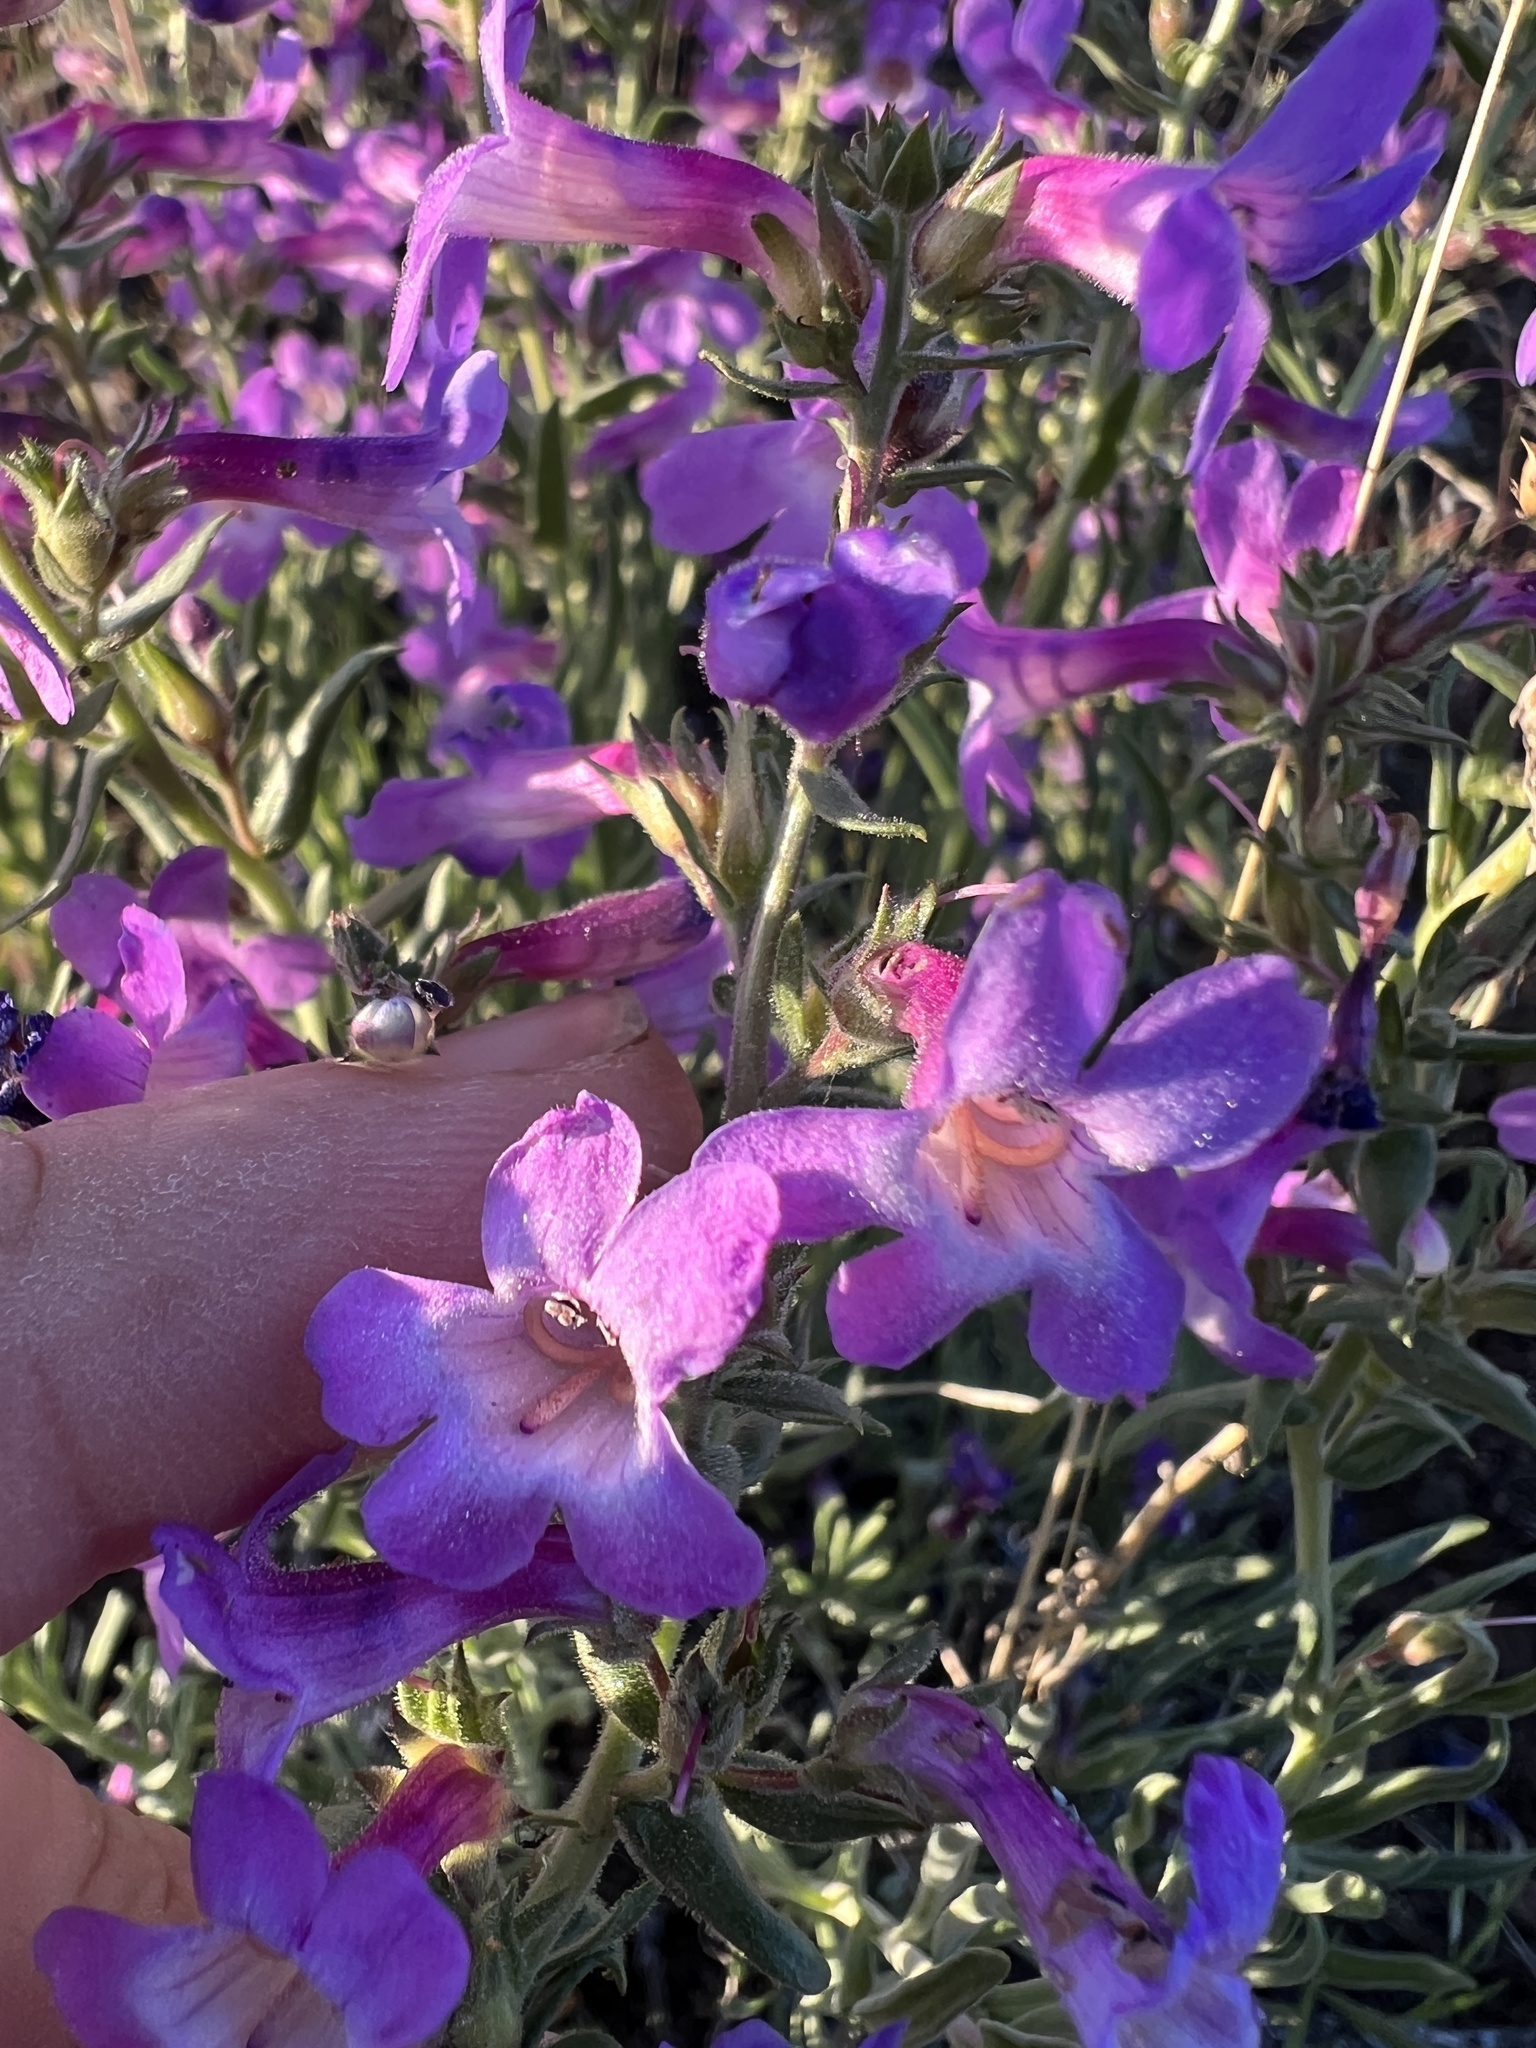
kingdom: Plantae
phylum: Tracheophyta
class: Magnoliopsida
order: Lamiales
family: Plantaginaceae
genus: Penstemon
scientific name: Penstemon gairdneri
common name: Gairdner's penstemon
